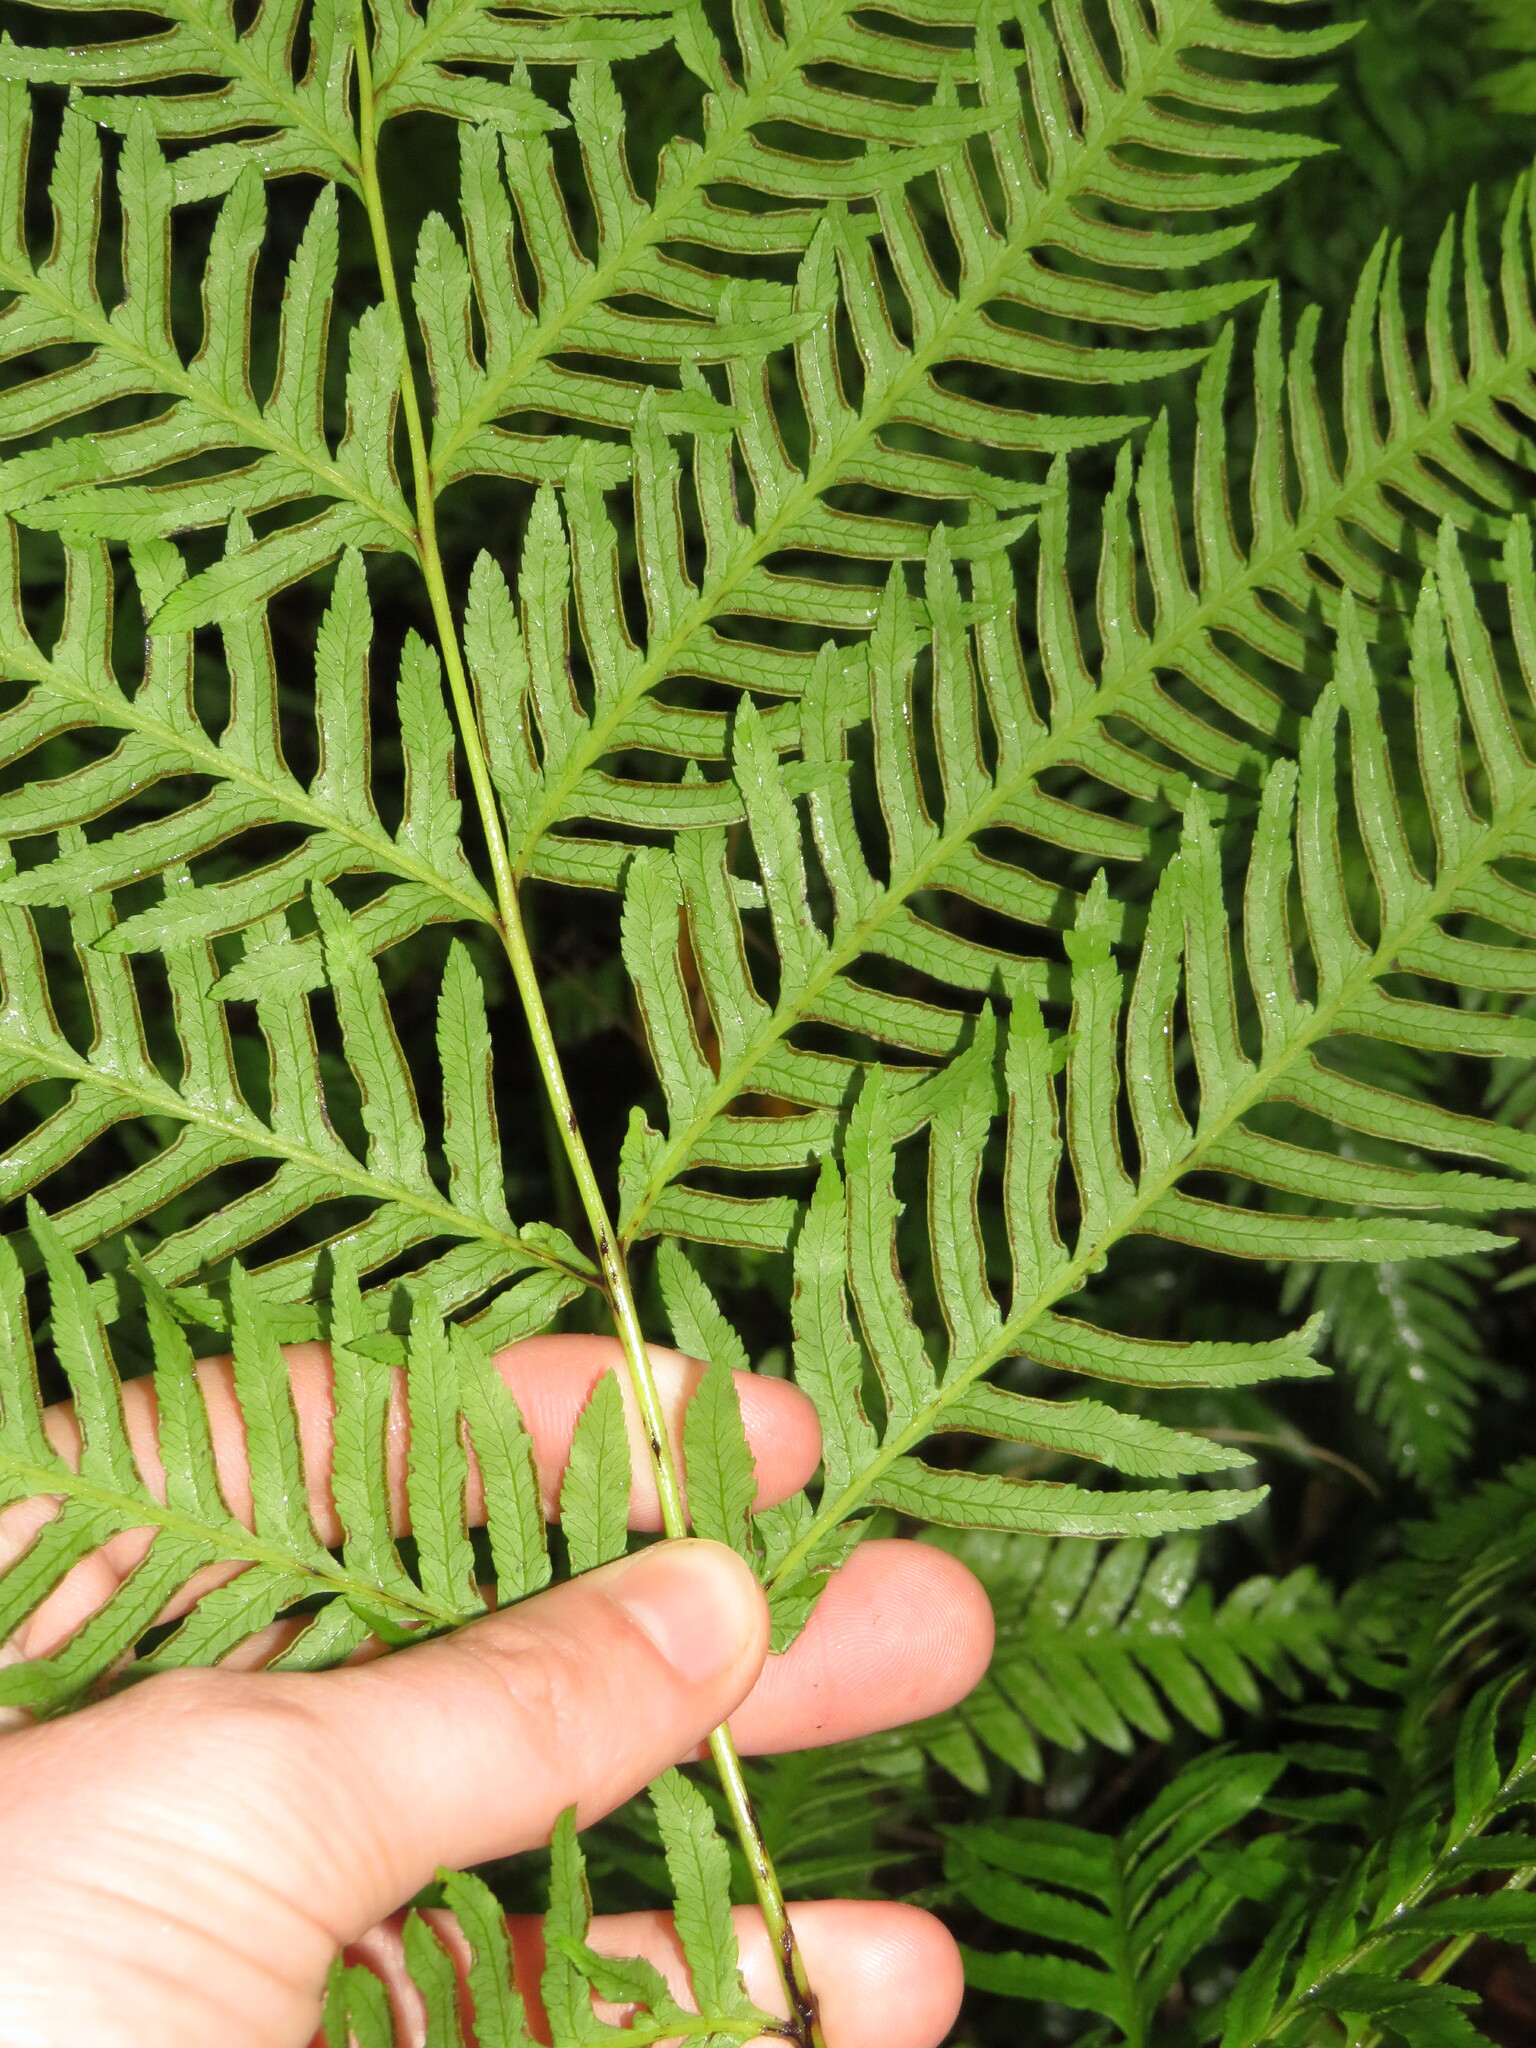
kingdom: Plantae
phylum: Tracheophyta
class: Polypodiopsida
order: Polypodiales
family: Pteridaceae
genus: Pteris
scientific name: Pteris dentata
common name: Toothed brake
